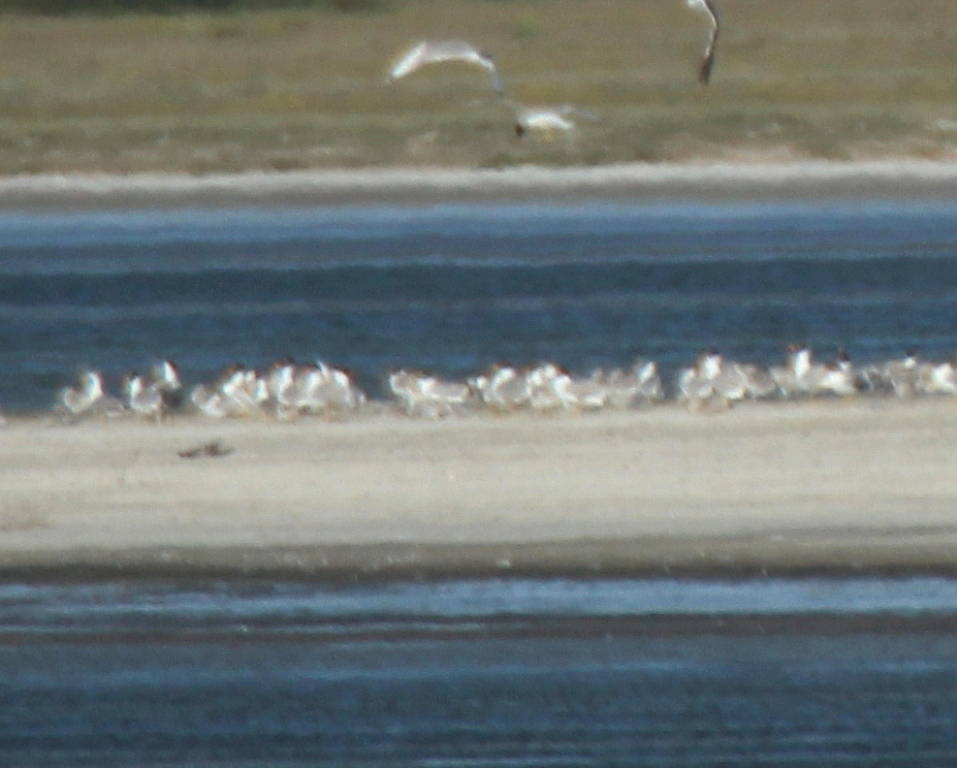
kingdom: Animalia
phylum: Chordata
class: Aves
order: Charadriiformes
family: Laridae
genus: Ichthyaetus
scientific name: Ichthyaetus ichthyaetus
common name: Pallas's gull
